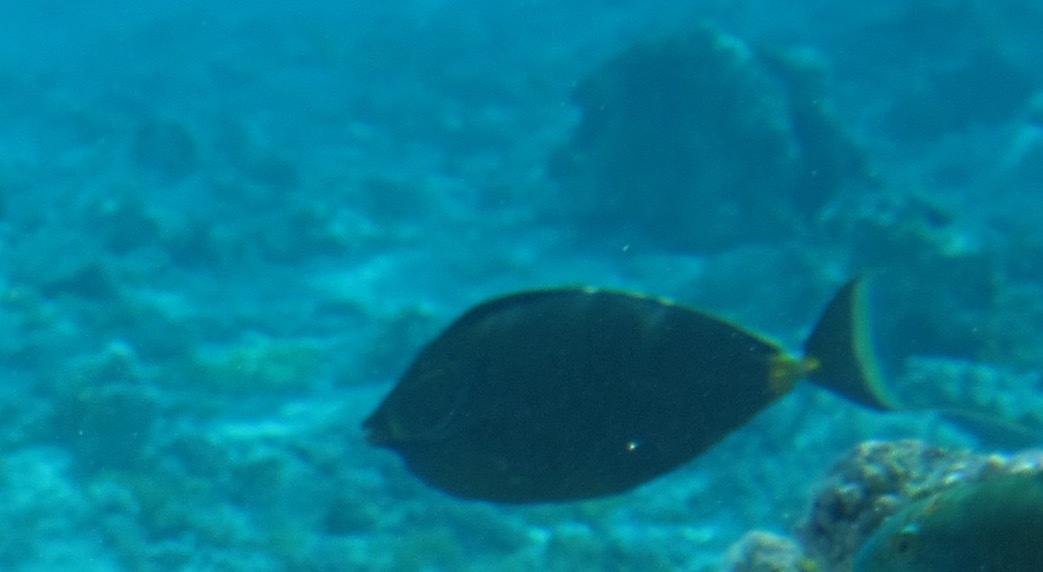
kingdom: Animalia
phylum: Chordata
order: Perciformes
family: Acanthuridae
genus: Naso
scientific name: Naso lituratus
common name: Orangespine unicornfish
